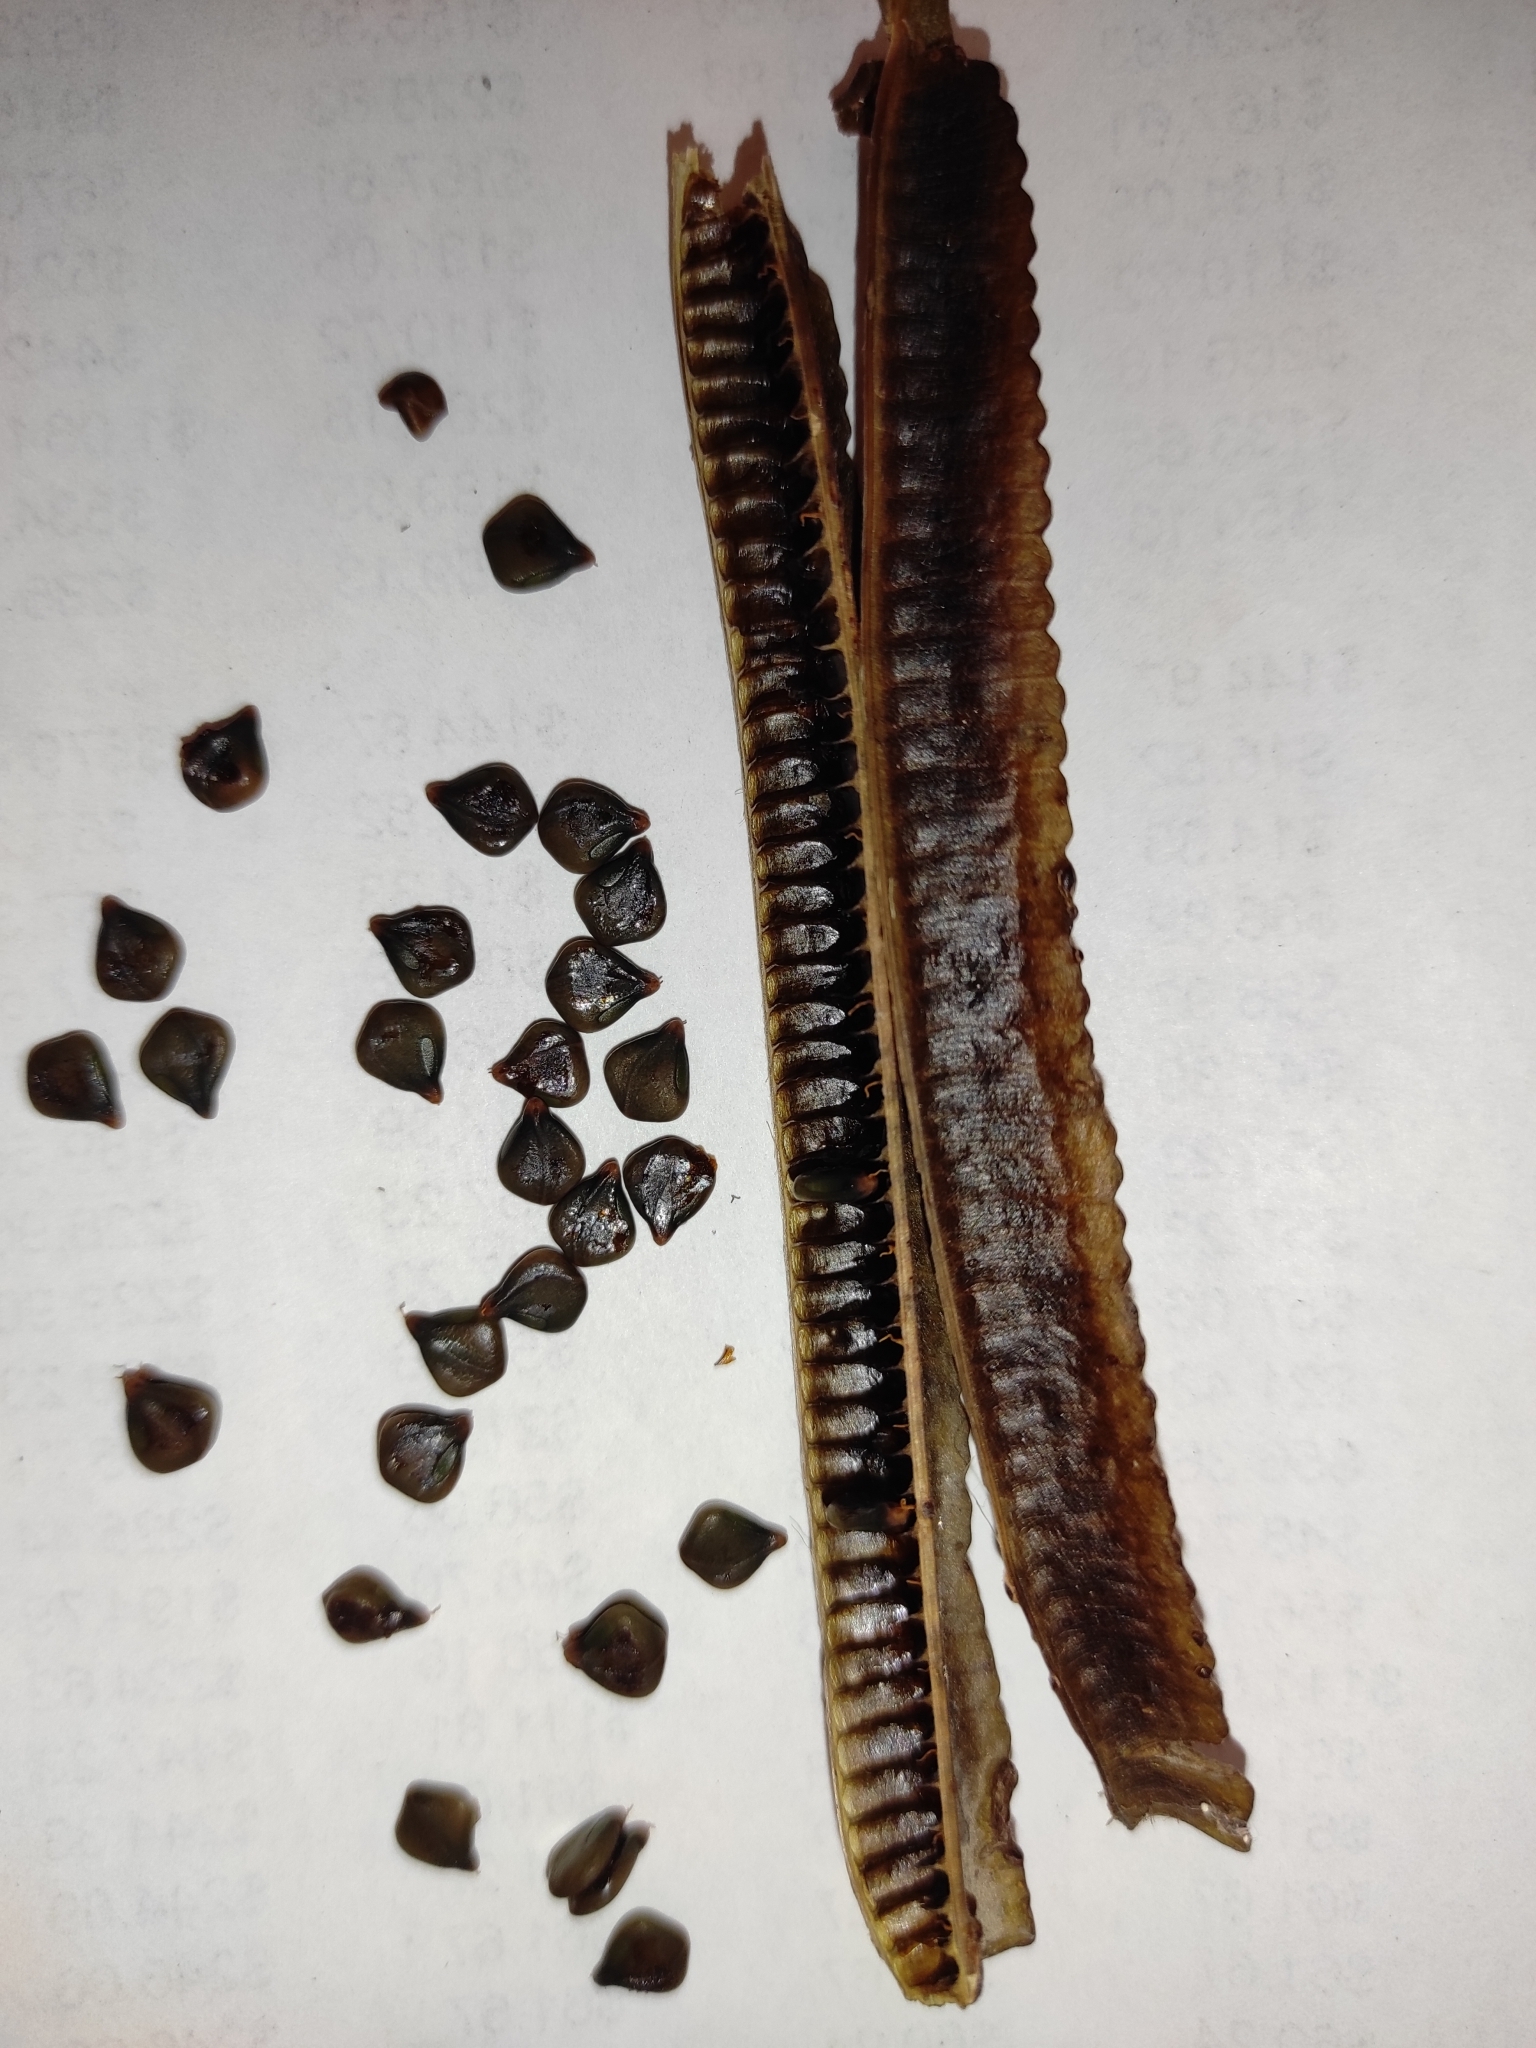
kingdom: Plantae
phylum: Tracheophyta
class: Magnoliopsida
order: Fabales
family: Fabaceae
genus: Senna
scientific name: Senna alata
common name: Emperor's candlesticks
